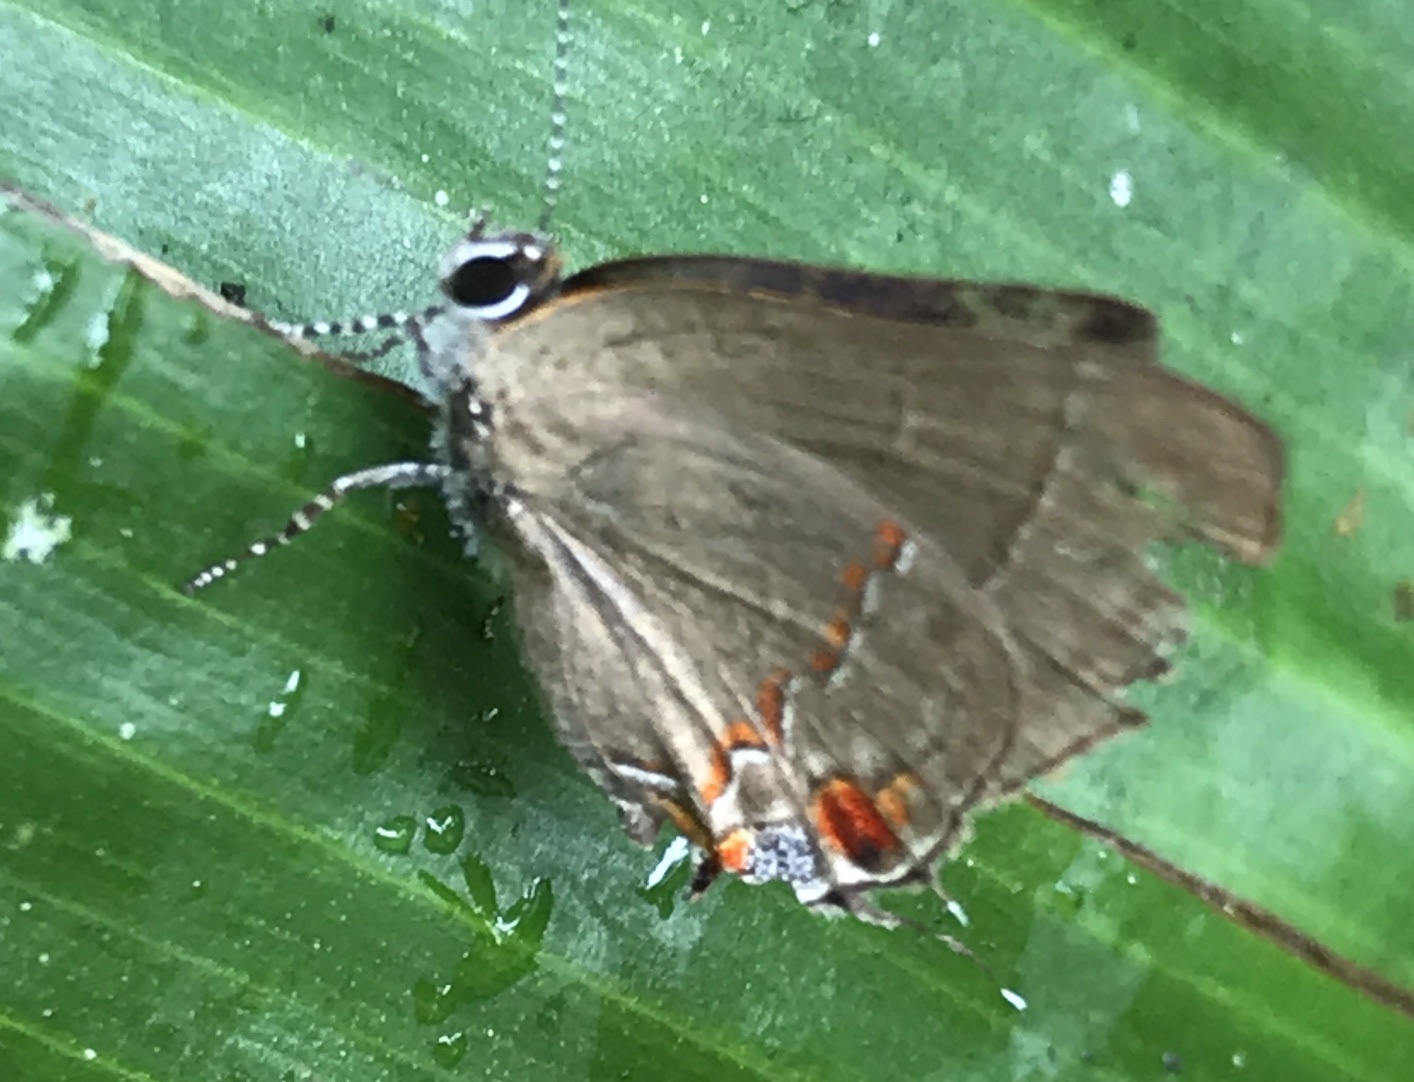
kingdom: Animalia
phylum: Arthropoda
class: Insecta
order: Lepidoptera
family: Lycaenidae
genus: Thecla
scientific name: Thecla syllis
